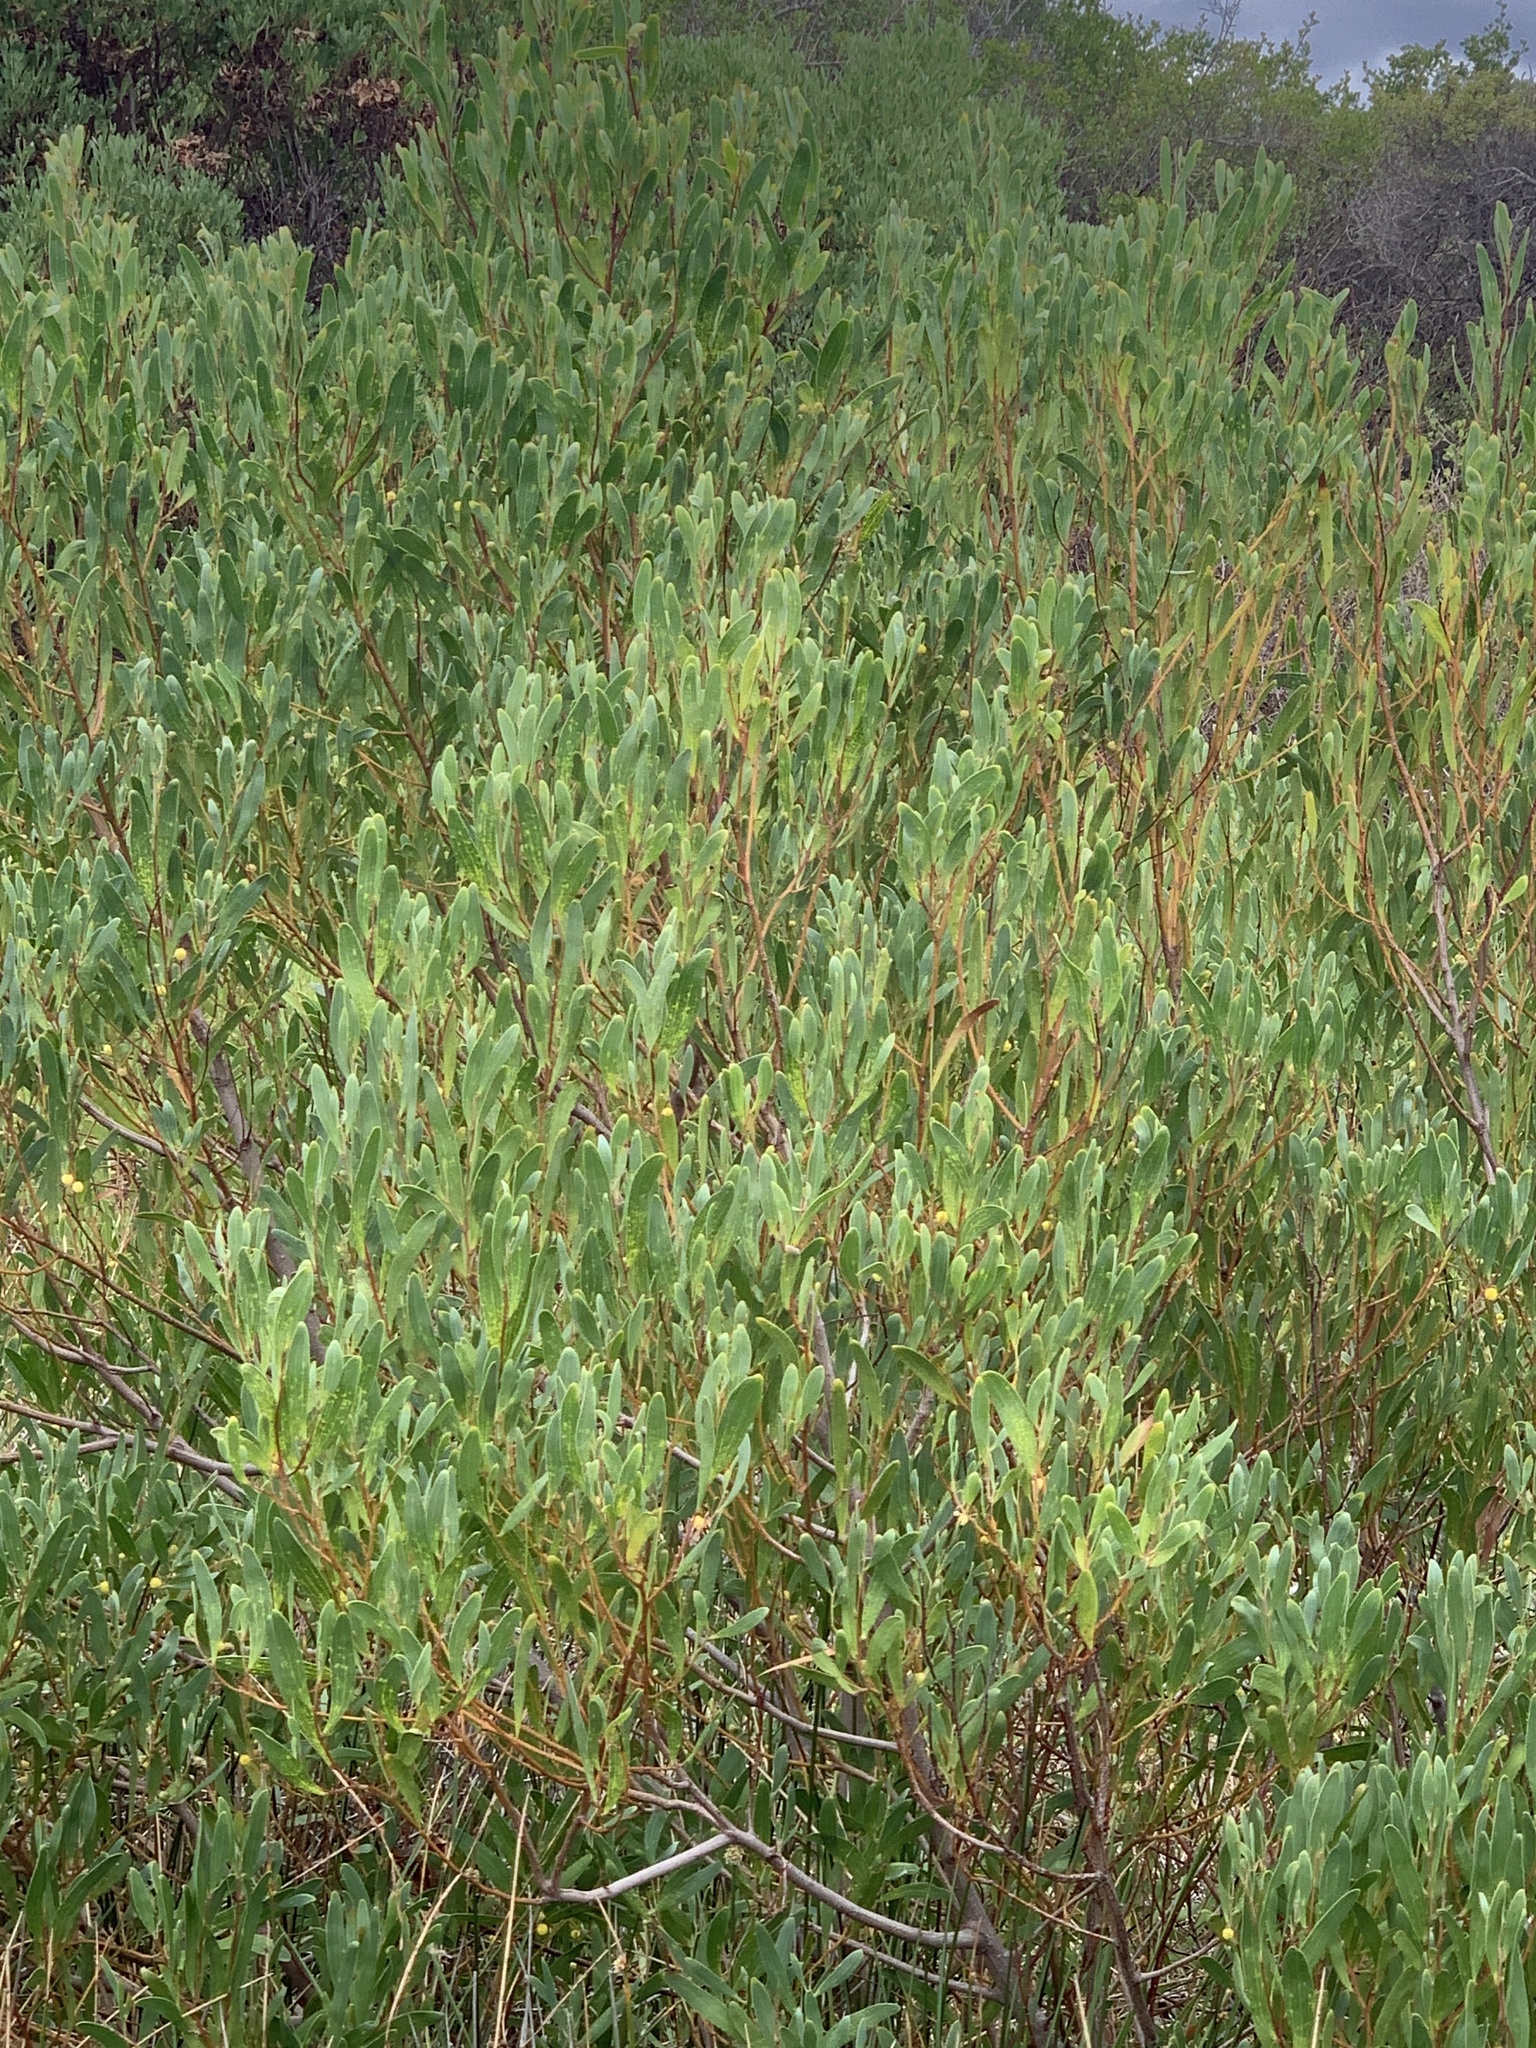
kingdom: Plantae
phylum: Tracheophyta
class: Magnoliopsida
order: Fabales
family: Fabaceae
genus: Acacia
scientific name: Acacia cyclops
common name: Coastal wattle
